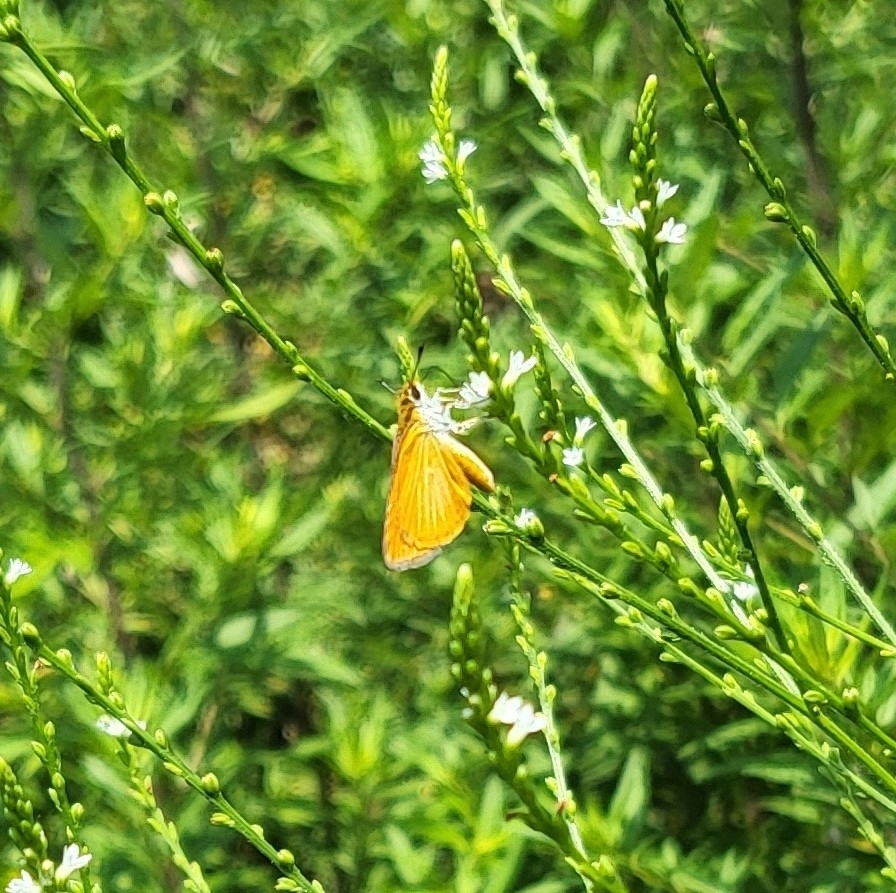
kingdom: Animalia
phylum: Arthropoda
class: Insecta
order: Lepidoptera
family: Hesperiidae
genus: Ancyloxypha
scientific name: Ancyloxypha numitor
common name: Least skipper
